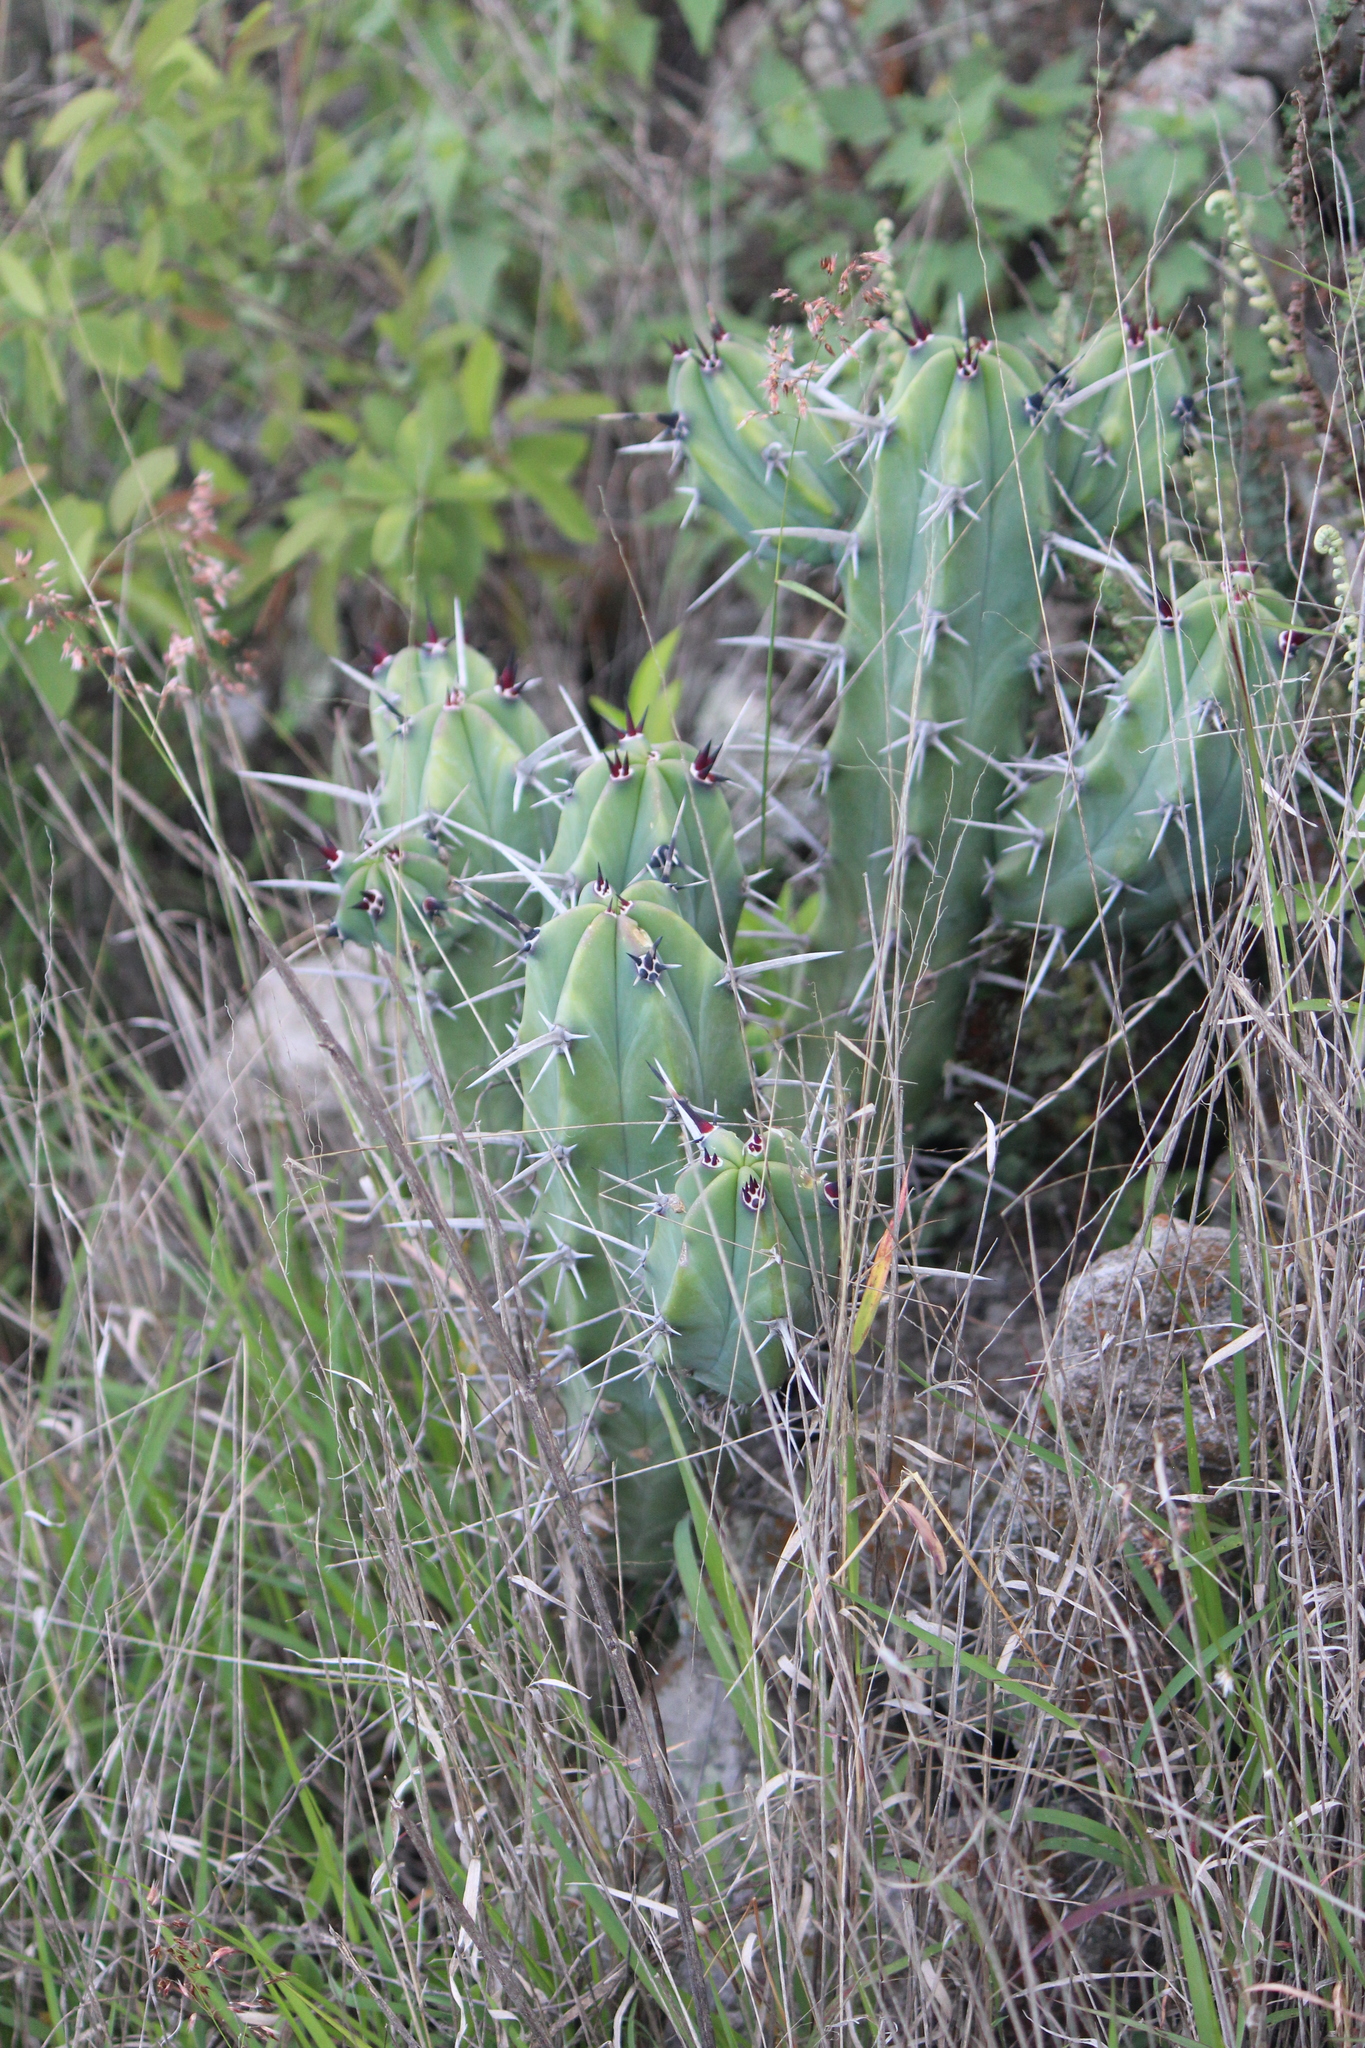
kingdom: Plantae
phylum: Tracheophyta
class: Magnoliopsida
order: Caryophyllales
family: Cactaceae
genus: Myrtillocactus
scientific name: Myrtillocactus geometrizans
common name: Bilberry cactus
